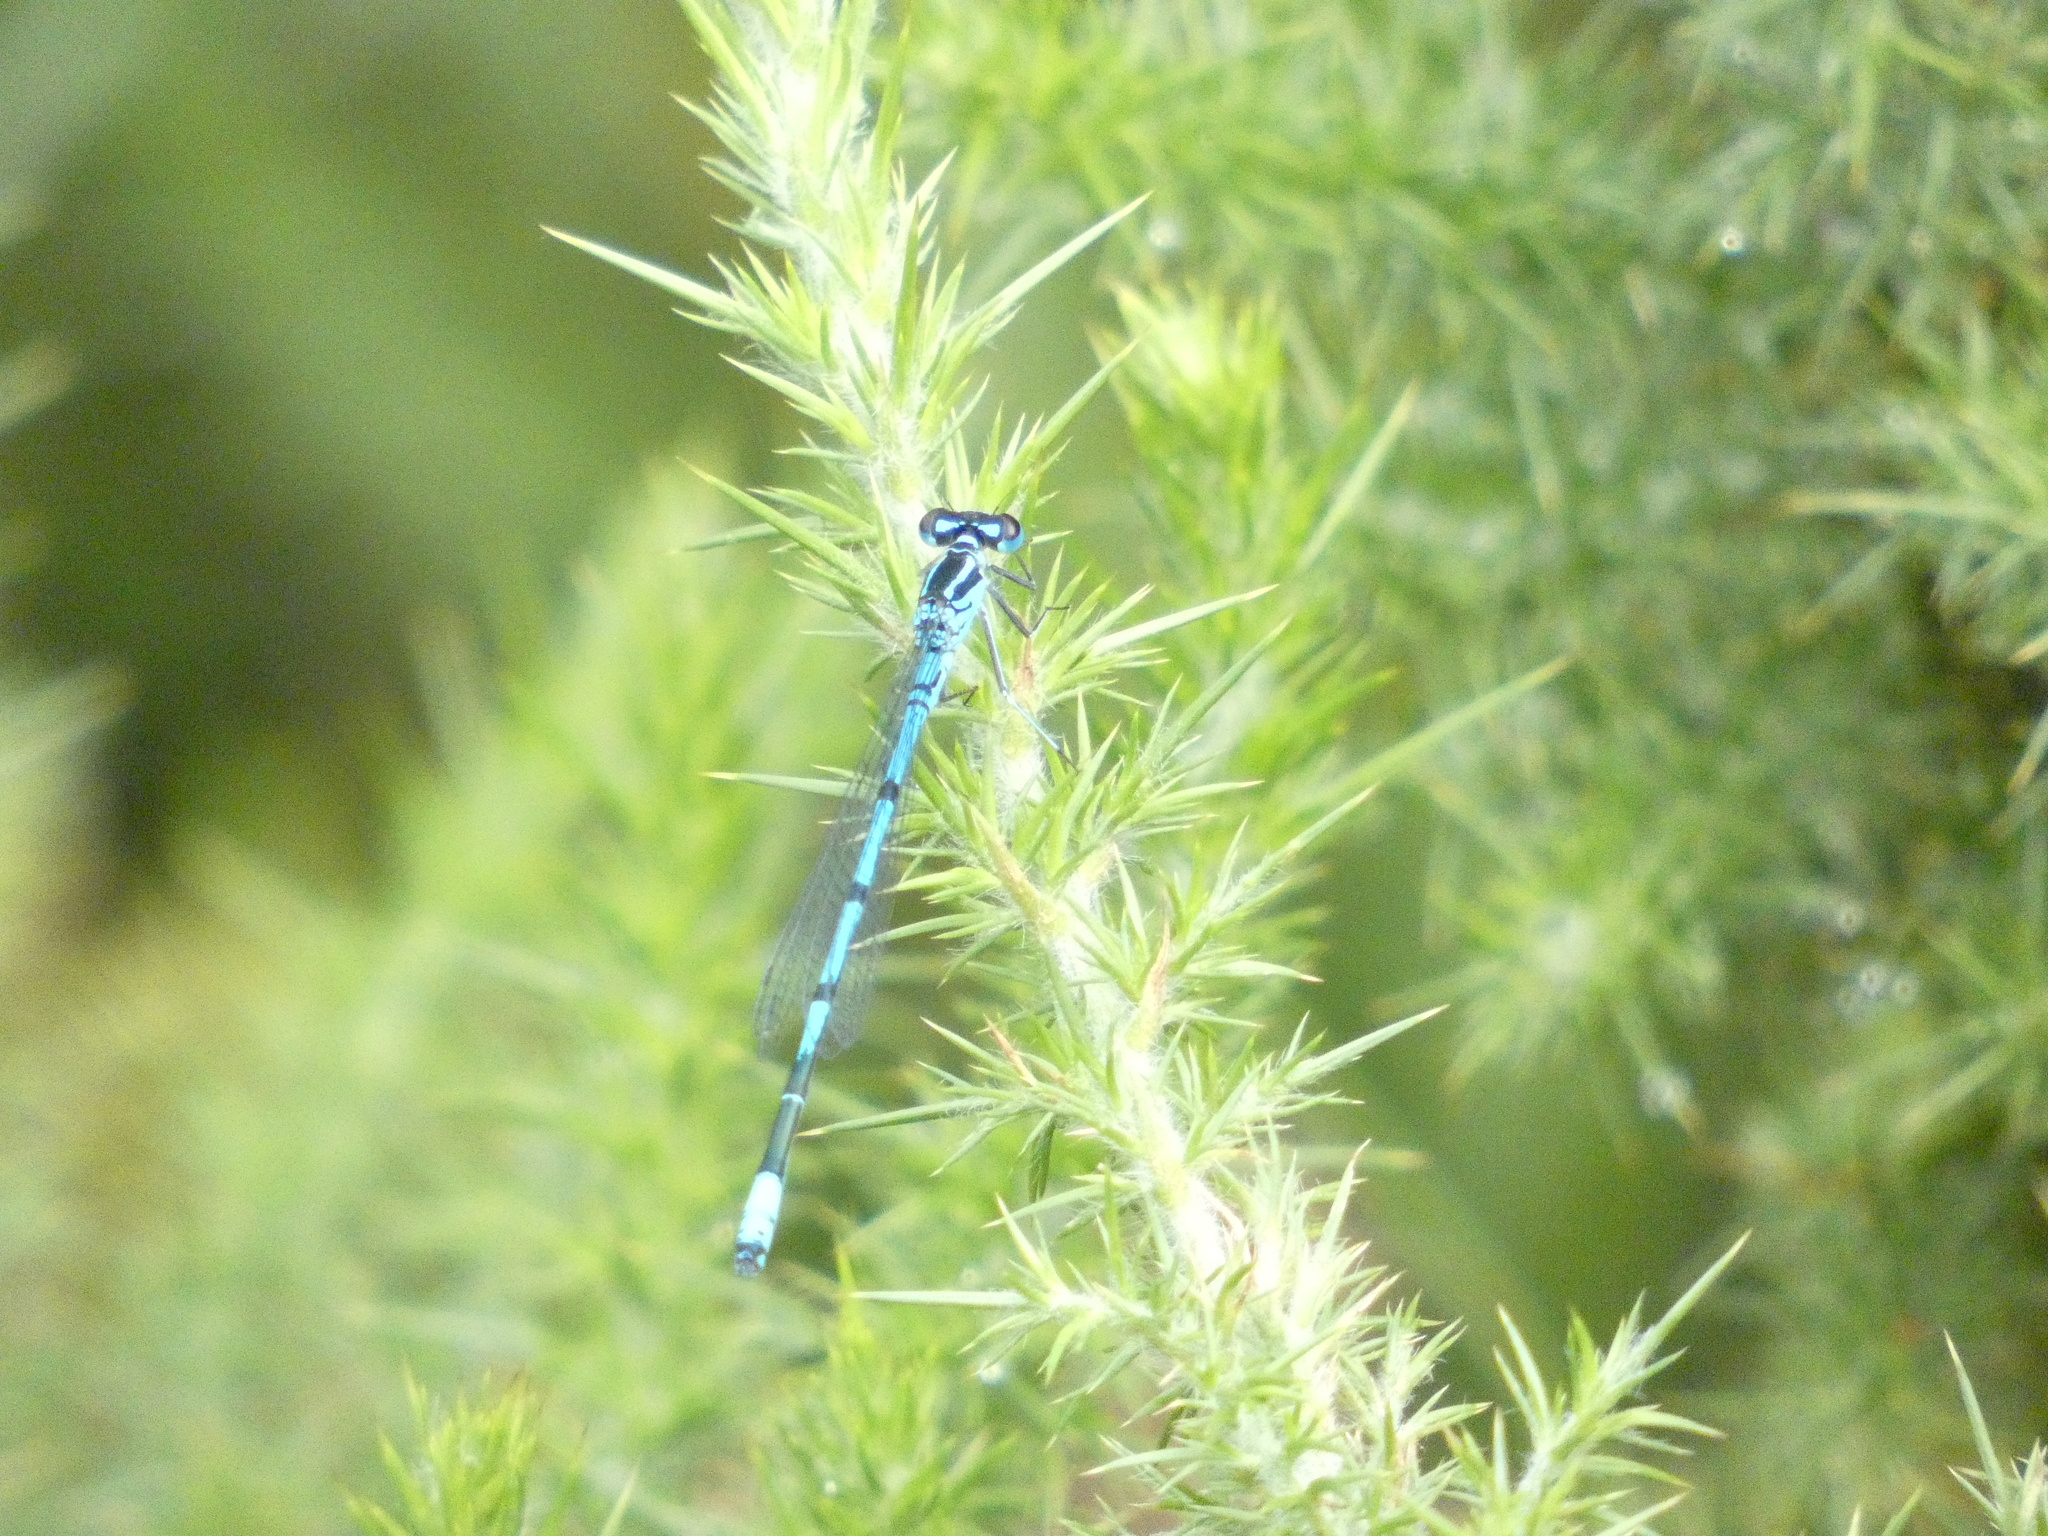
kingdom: Animalia
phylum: Arthropoda
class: Insecta
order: Odonata
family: Coenagrionidae
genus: Coenagrion
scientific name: Coenagrion puella
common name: Azure damselfly
